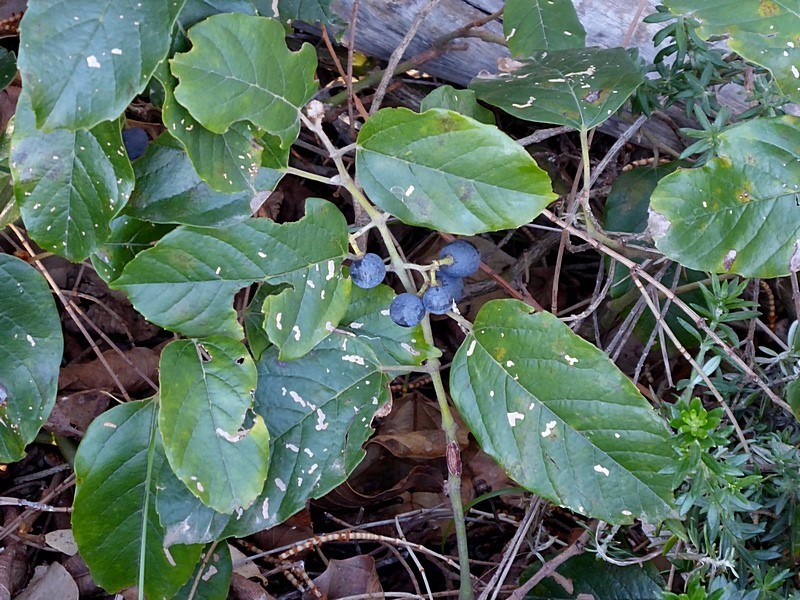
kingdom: Plantae
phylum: Tracheophyta
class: Magnoliopsida
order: Vitales
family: Vitaceae
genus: Cissus
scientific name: Cissus antarctica
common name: Kangaroo vine
